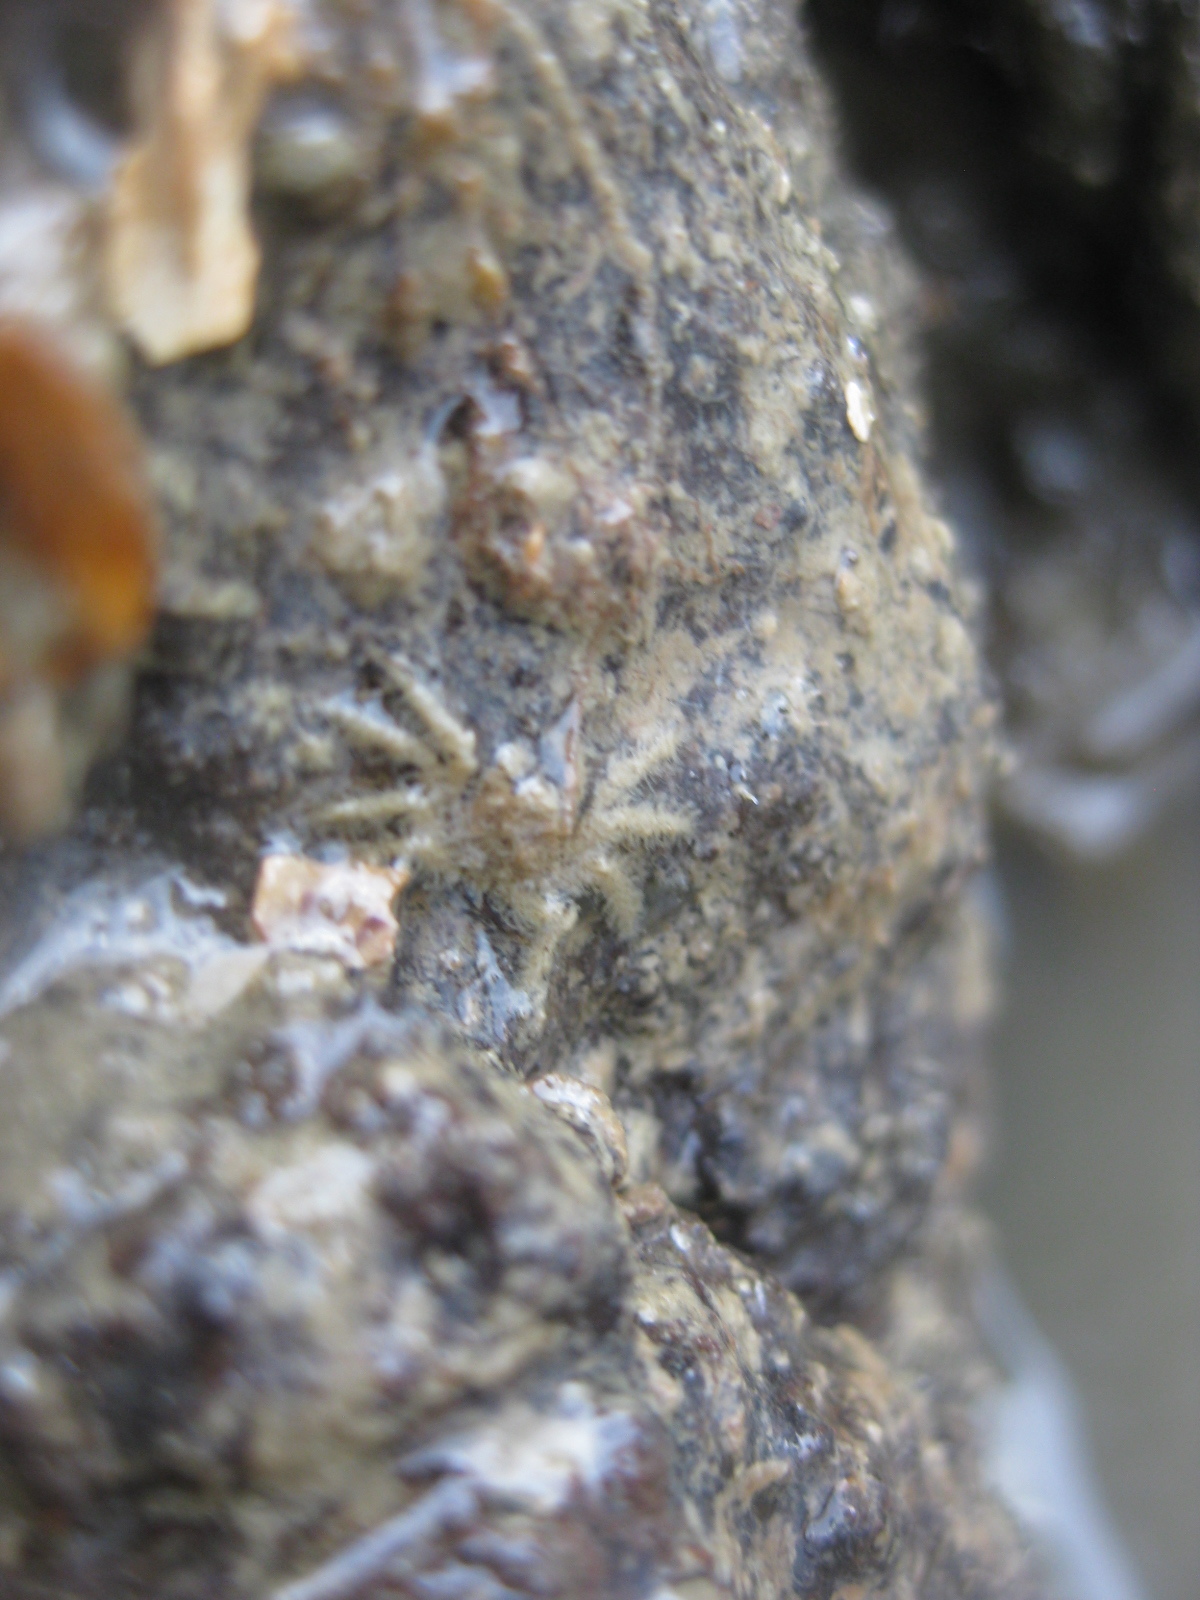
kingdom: Animalia
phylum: Arthropoda
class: Malacostraca
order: Decapoda
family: Hymenosomatidae
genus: Neohymenicus
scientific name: Neohymenicus pubescens
